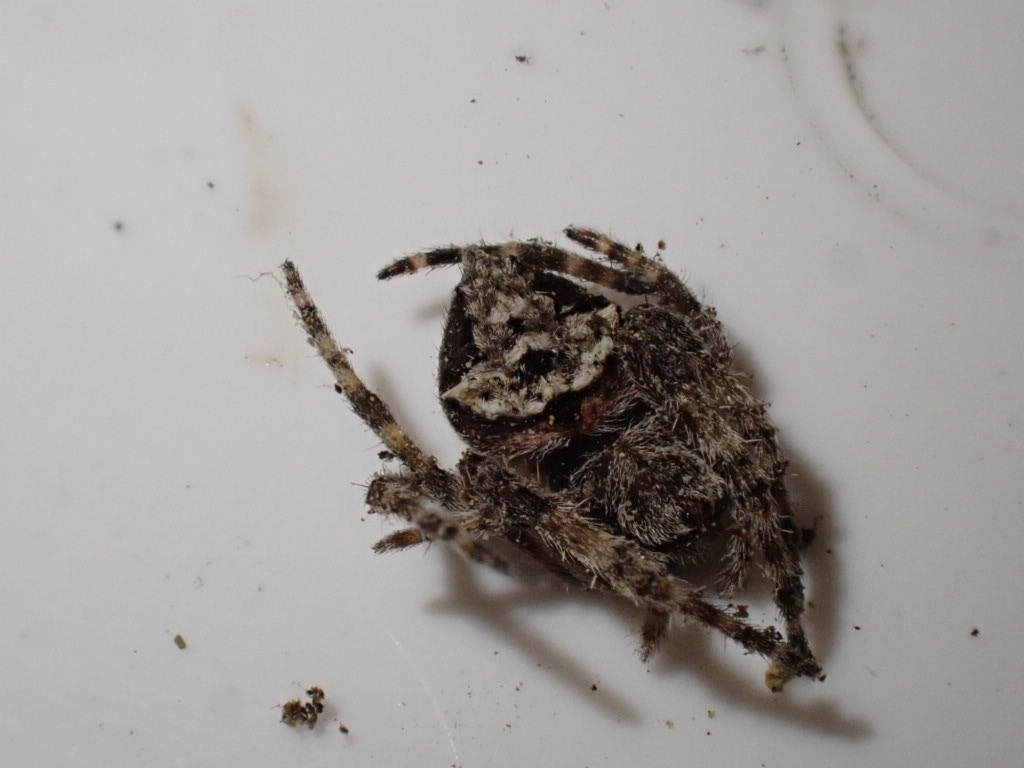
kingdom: Animalia
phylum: Arthropoda
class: Arachnida
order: Araneae
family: Araneidae
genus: Eriophora
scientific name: Eriophora pustulosa
